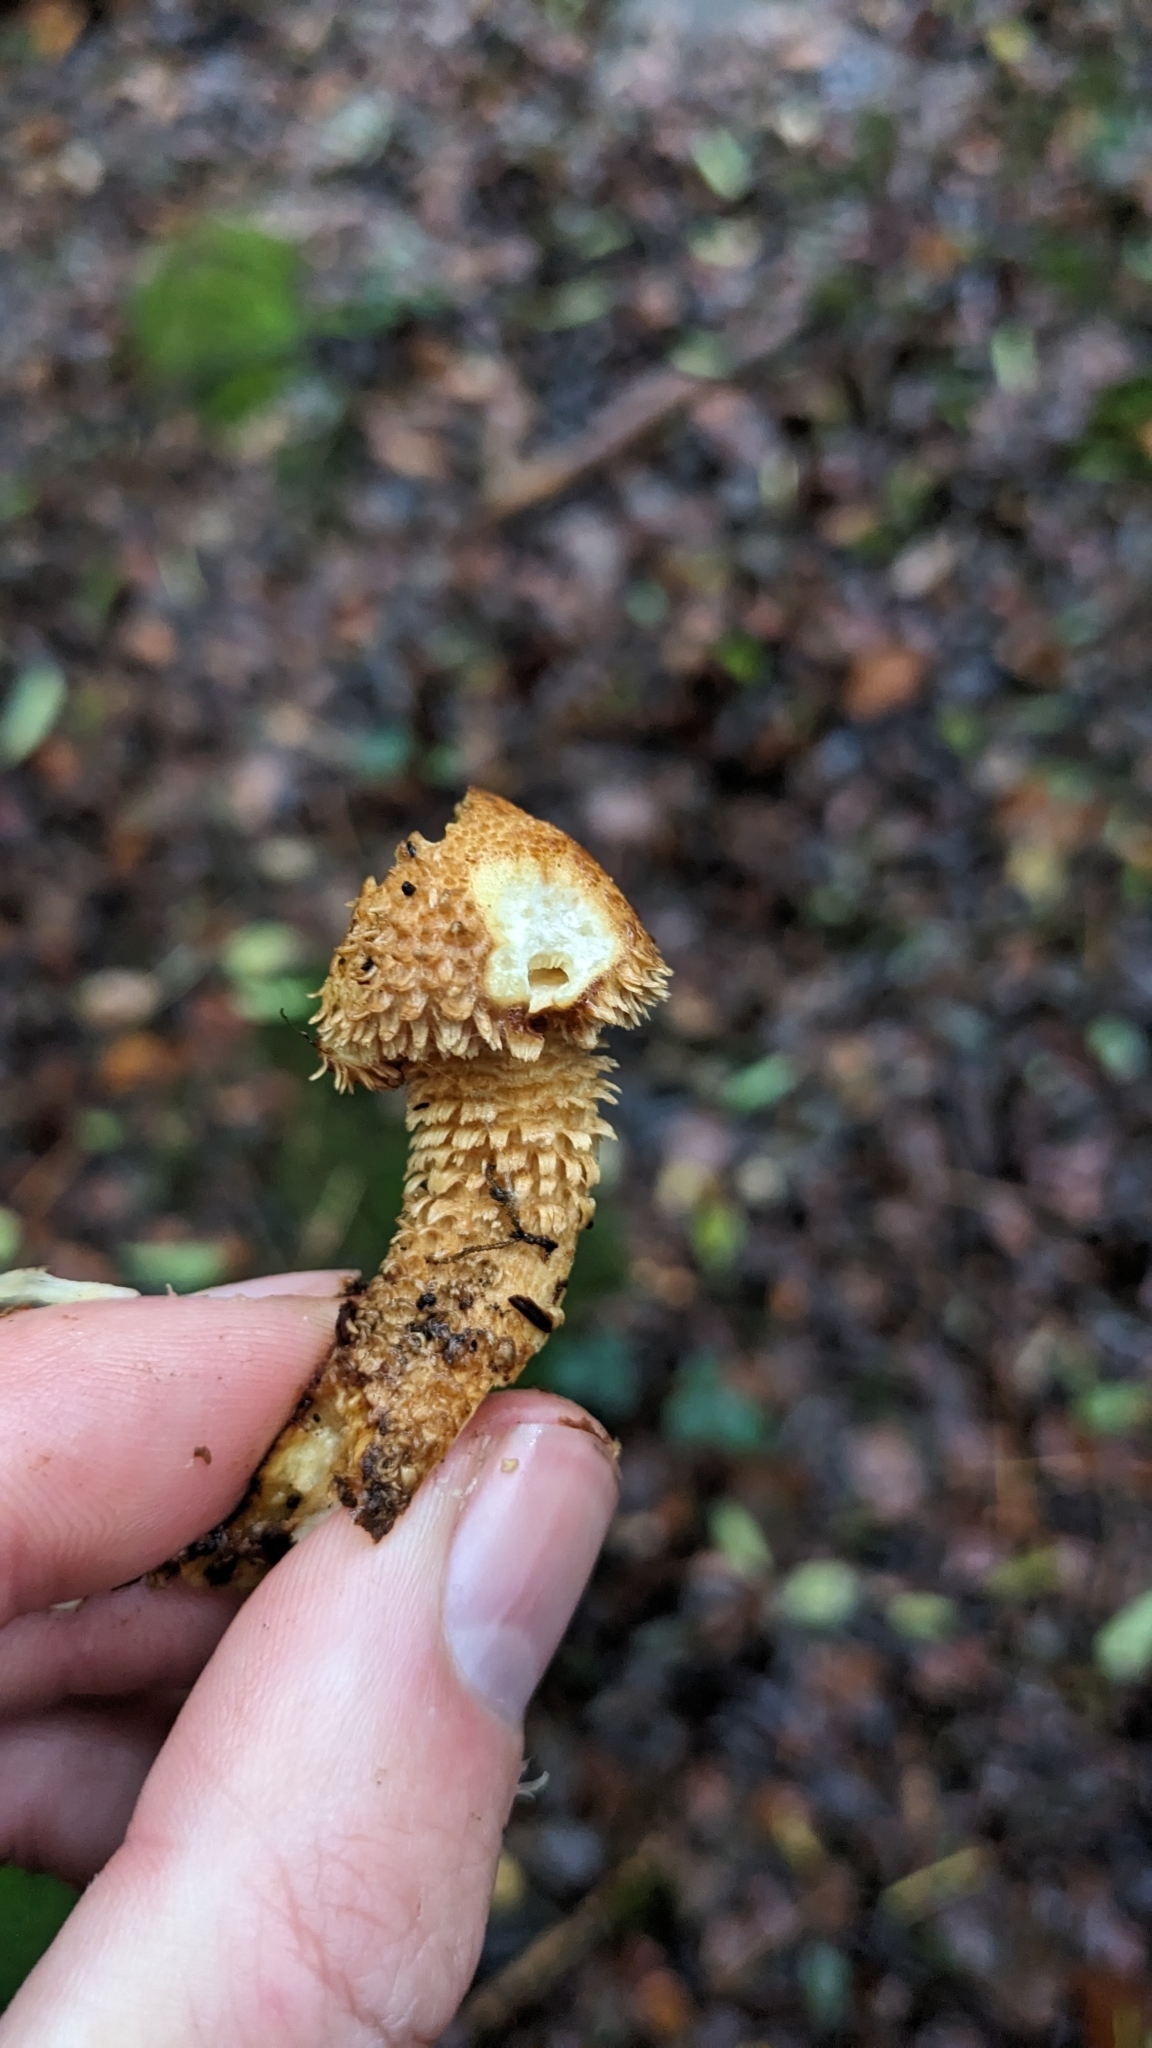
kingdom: Fungi
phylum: Basidiomycota
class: Agaricomycetes
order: Agaricales
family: Strophariaceae
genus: Pholiota
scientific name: Pholiota squarrosa
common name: Shaggy pholiota
